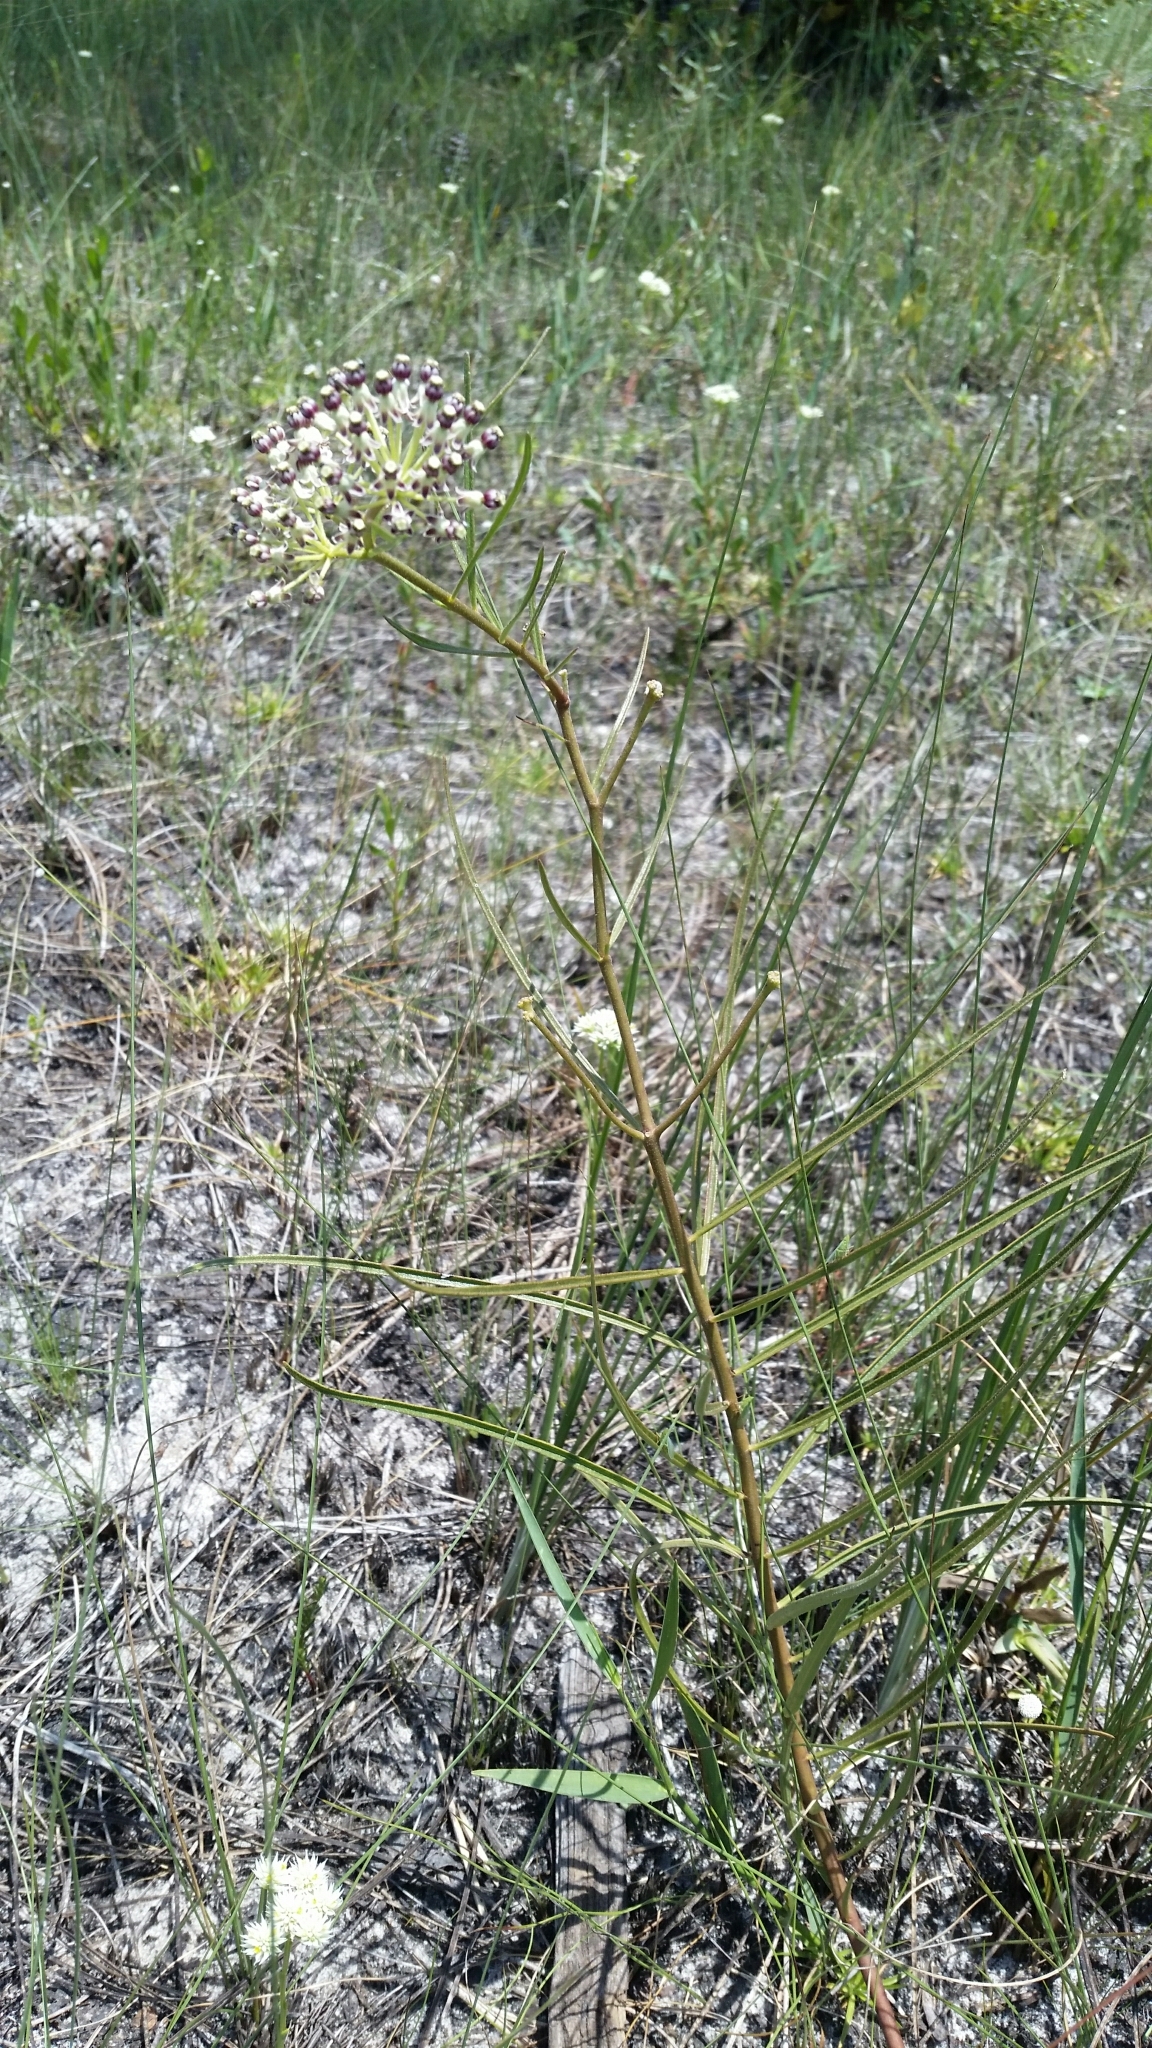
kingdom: Plantae
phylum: Tracheophyta
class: Magnoliopsida
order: Gentianales
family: Apocynaceae
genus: Asclepias
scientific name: Asclepias longifolia
